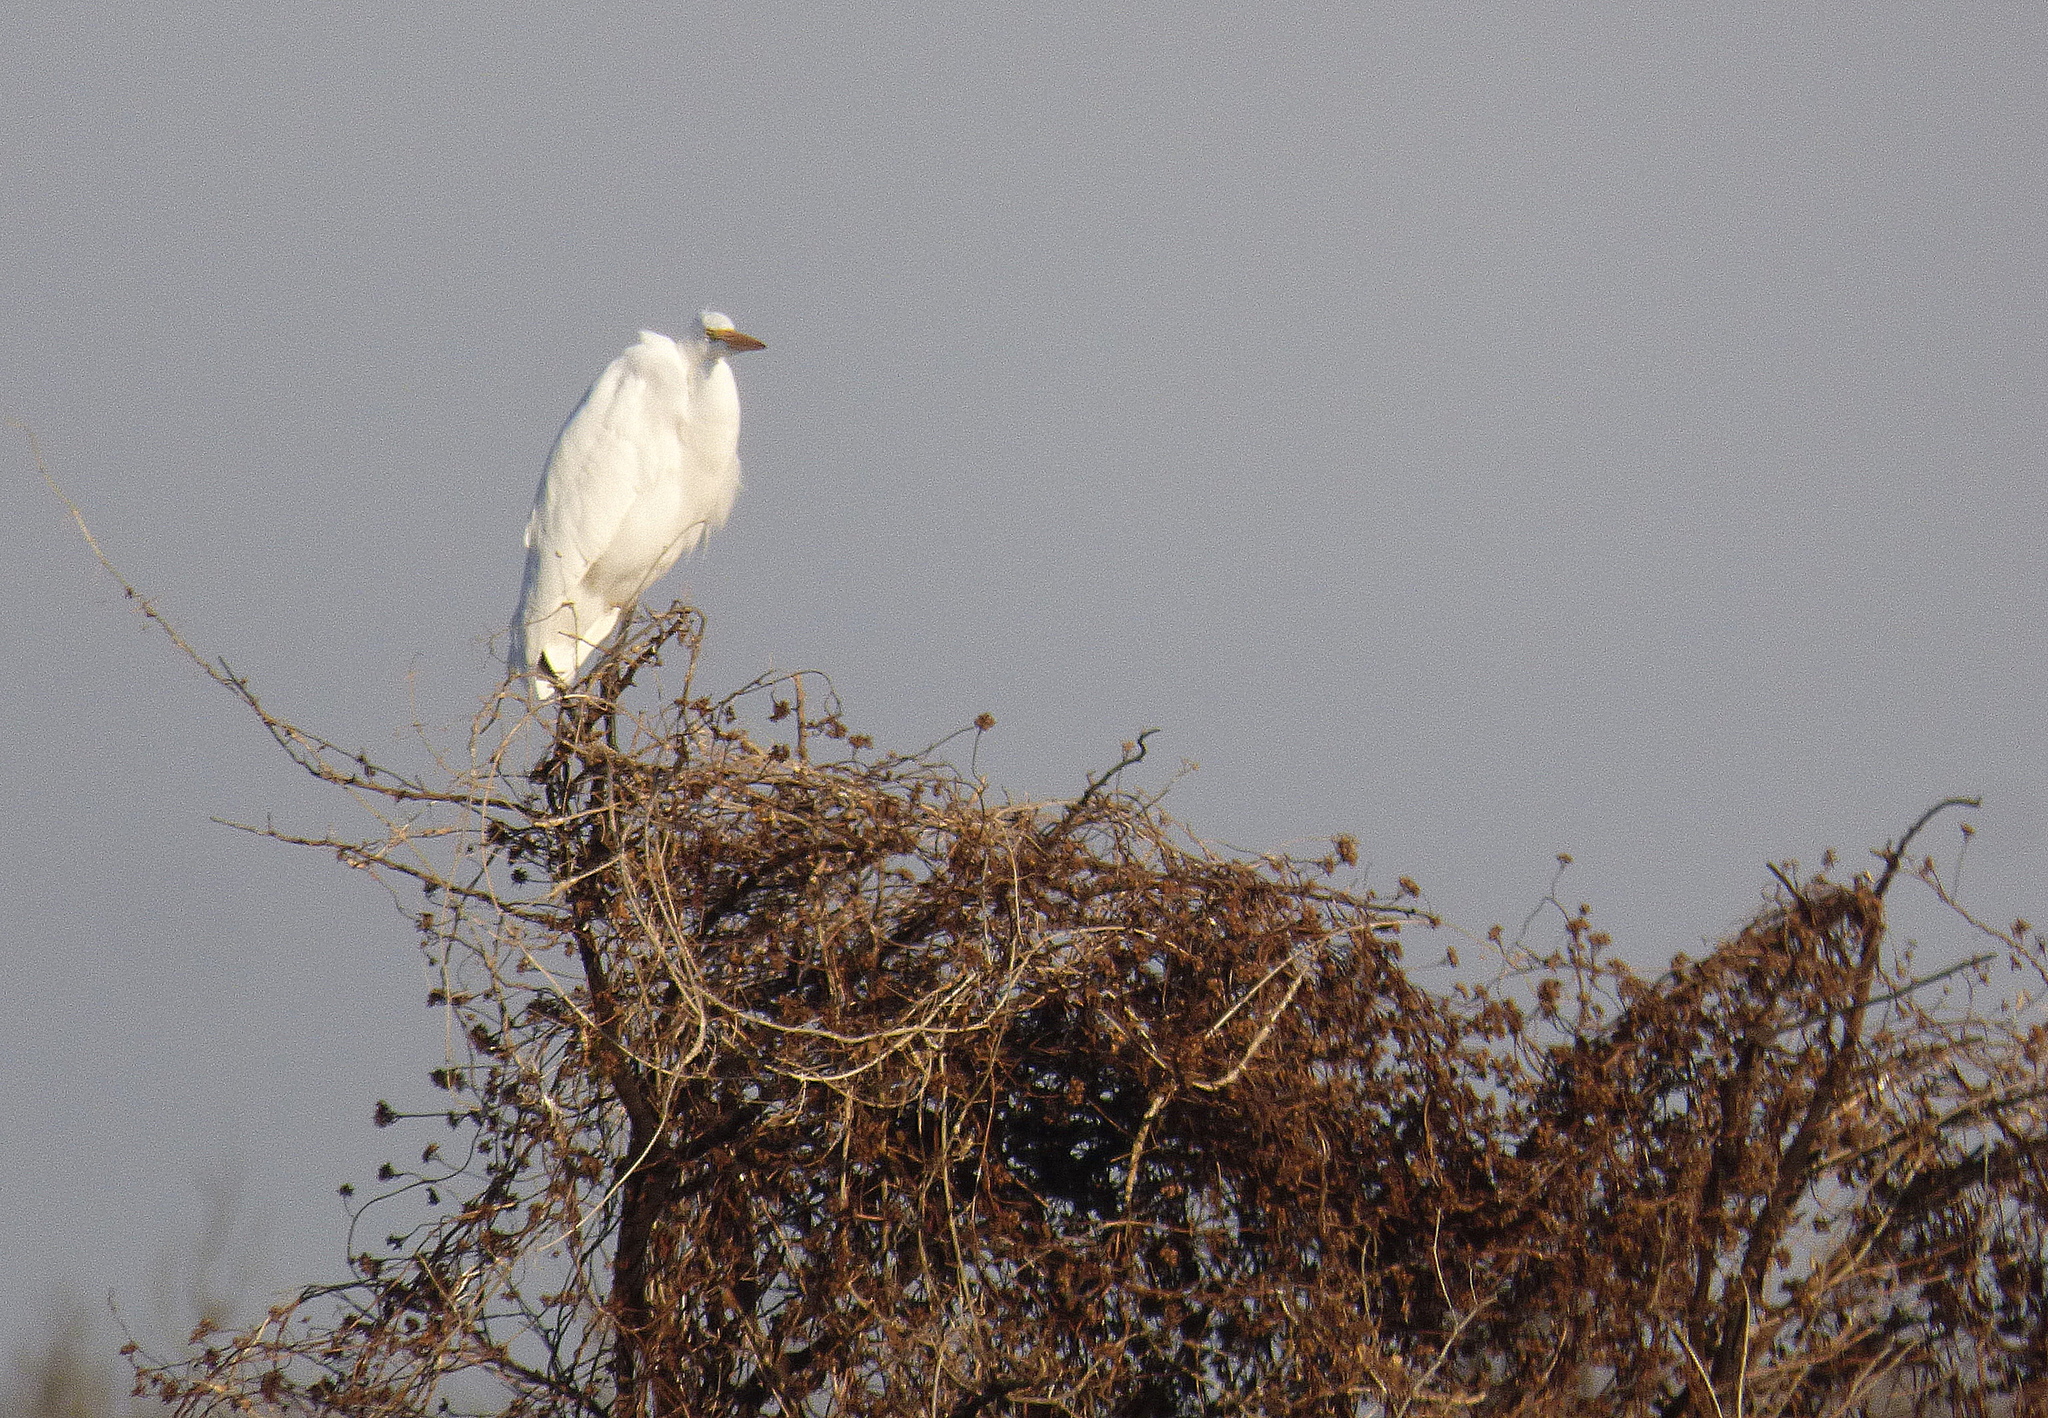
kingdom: Animalia
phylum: Chordata
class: Aves
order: Pelecaniformes
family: Ardeidae
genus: Ardea
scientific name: Ardea alba
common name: Great egret
